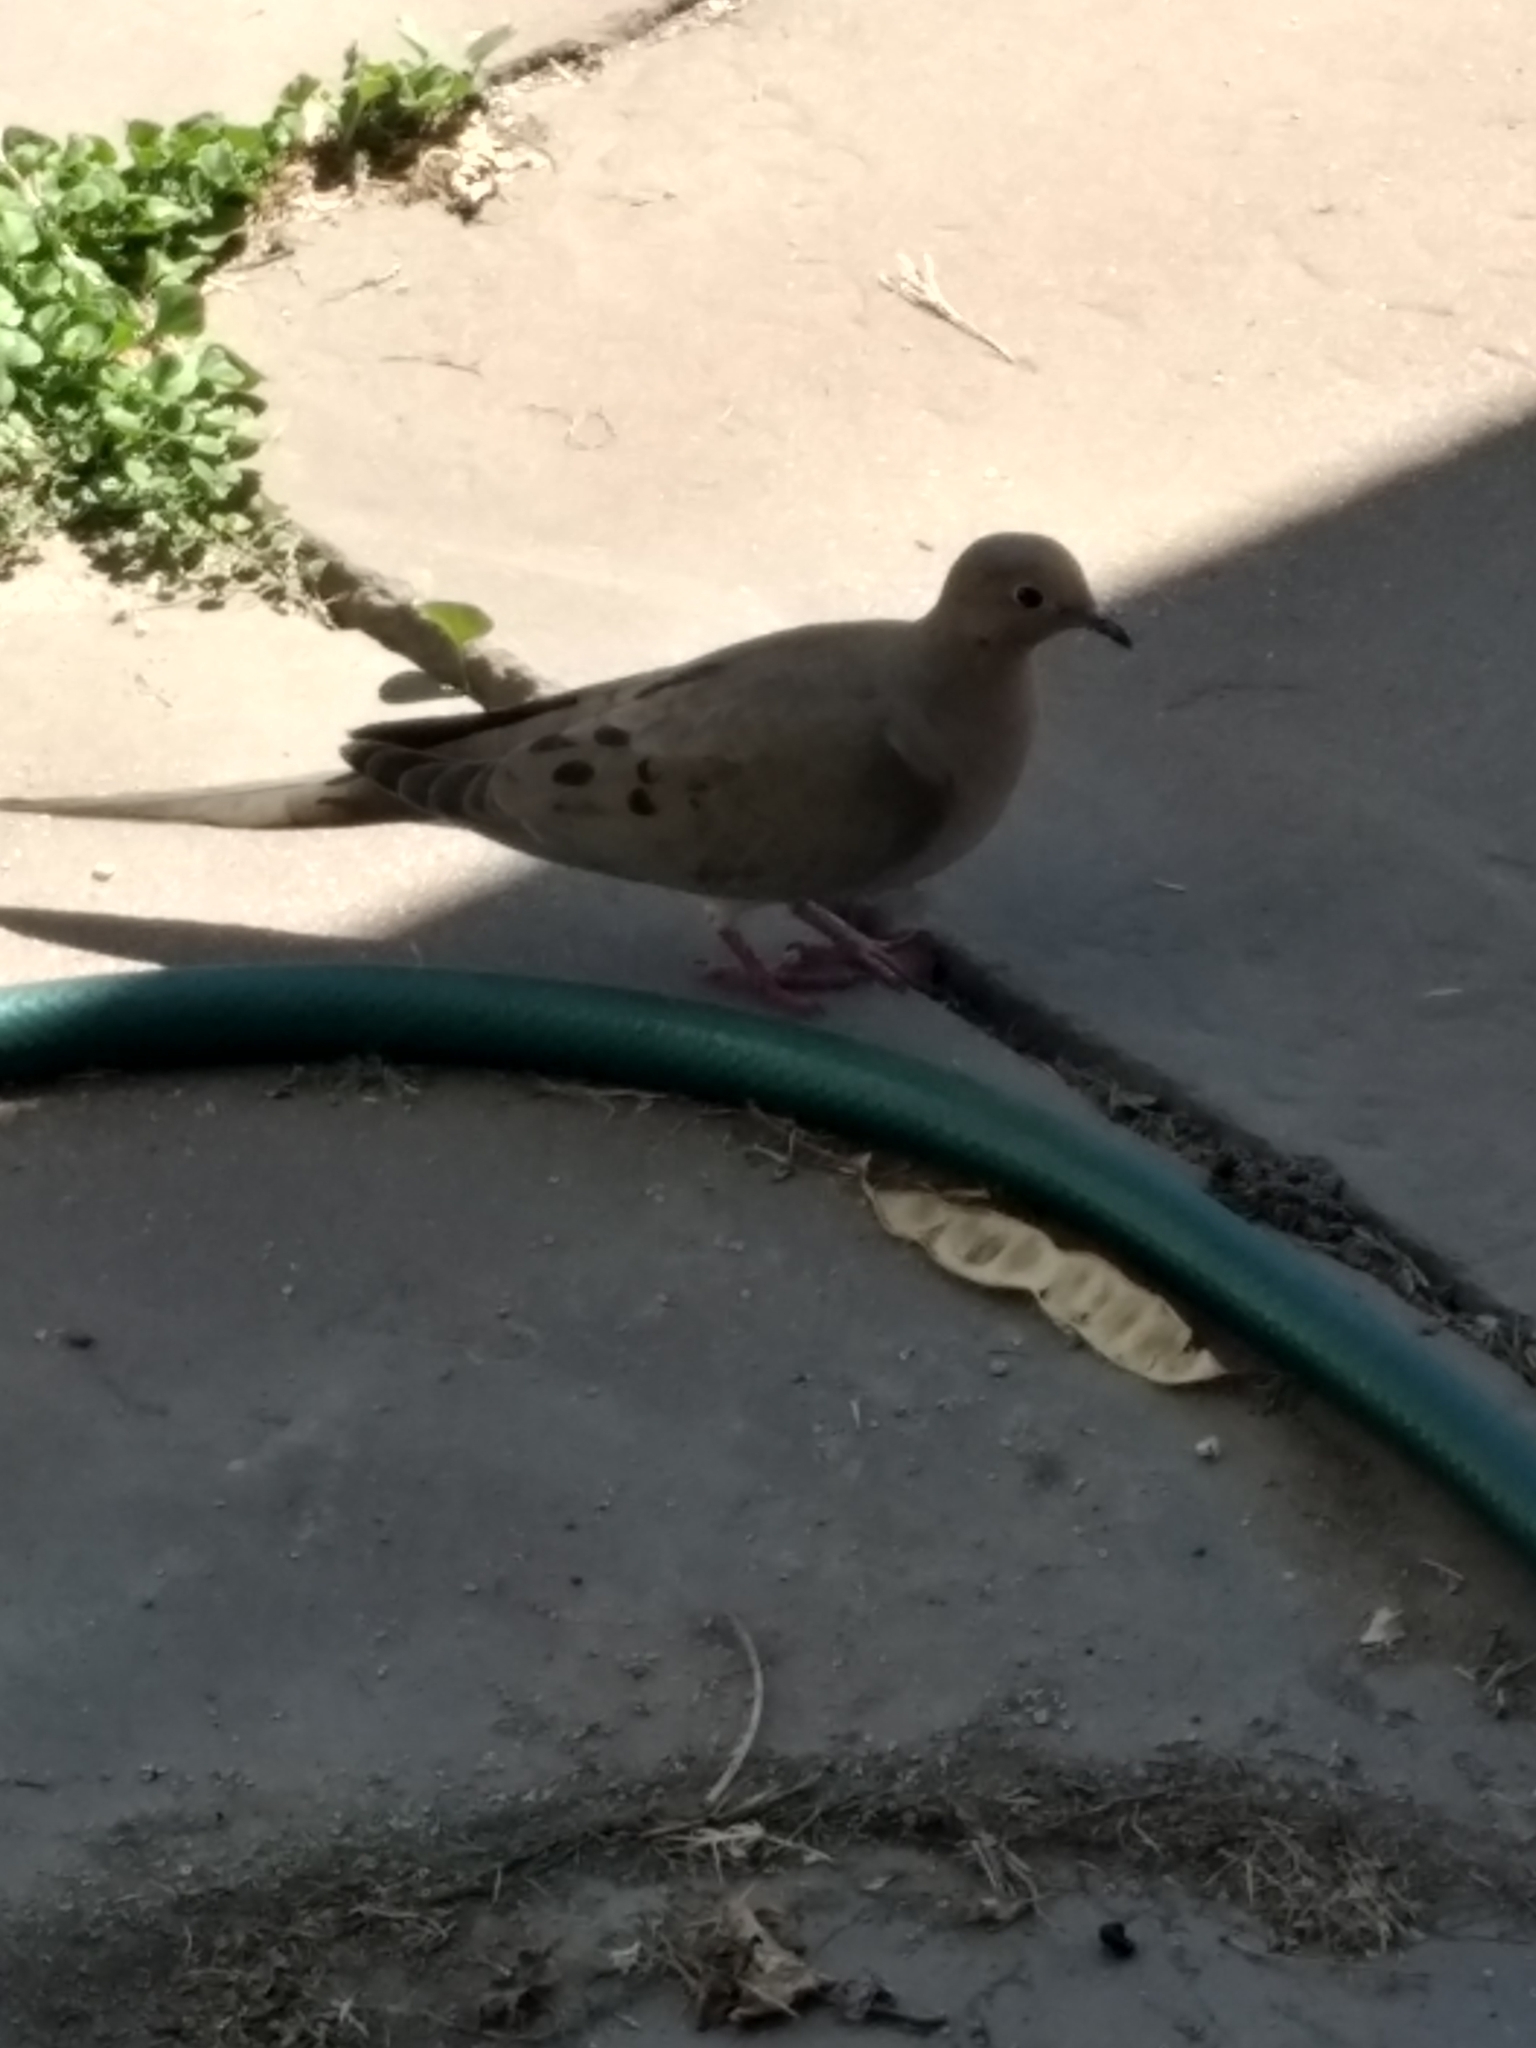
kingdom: Animalia
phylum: Chordata
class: Aves
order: Columbiformes
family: Columbidae
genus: Zenaida
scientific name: Zenaida macroura
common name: Mourning dove
